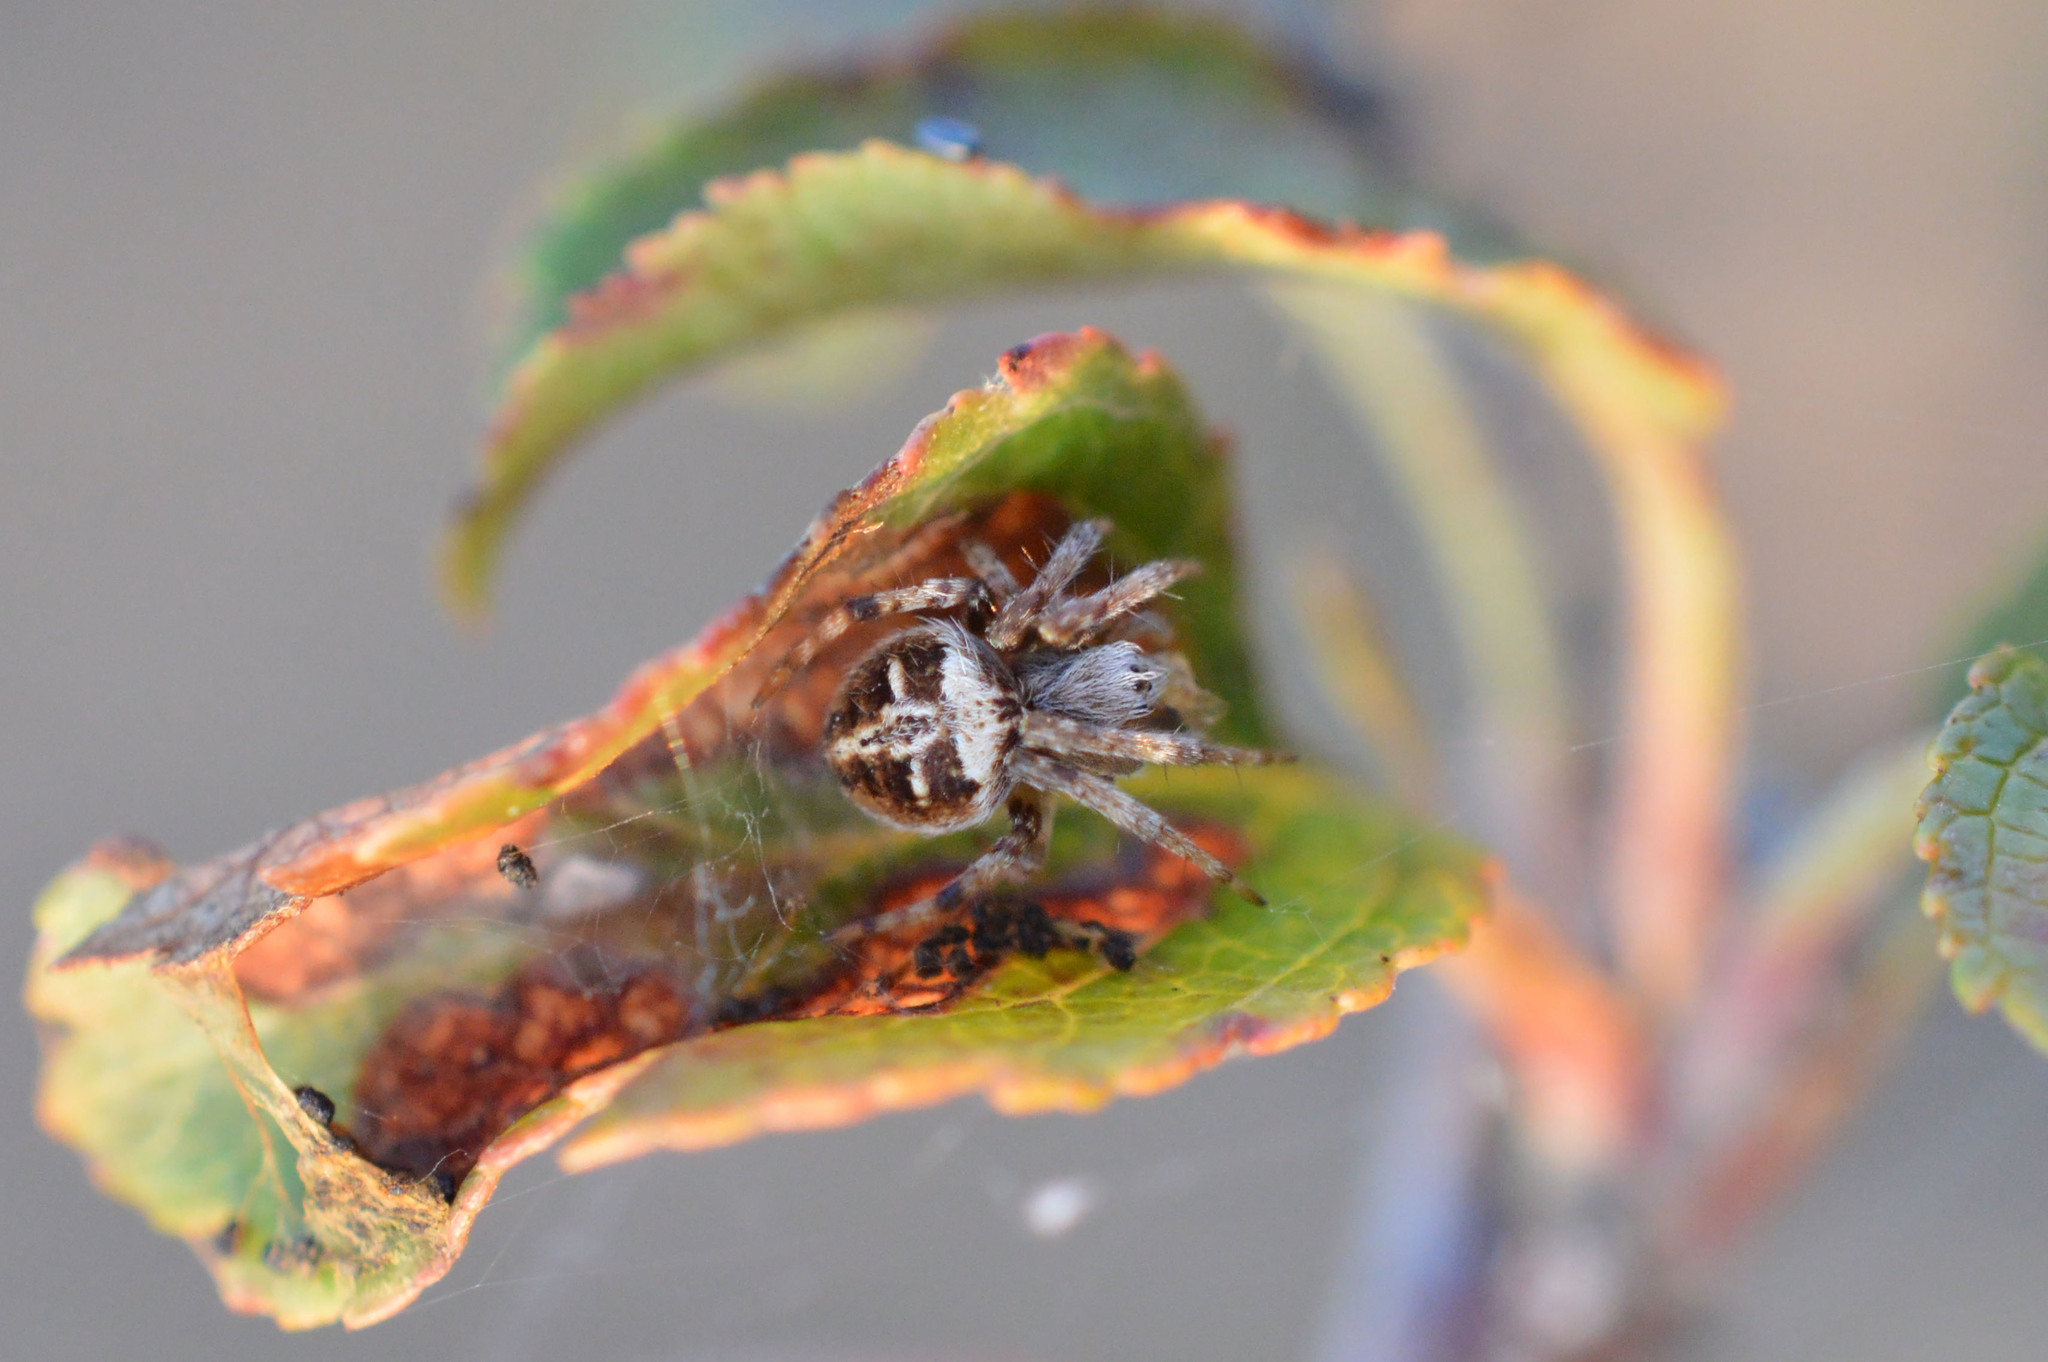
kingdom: Animalia
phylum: Arthropoda
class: Arachnida
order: Araneae
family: Araneidae
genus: Agalenatea
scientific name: Agalenatea redii
